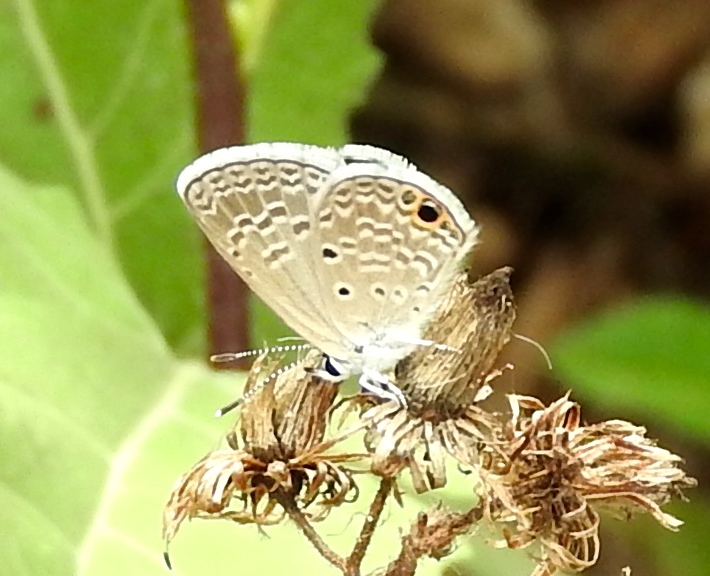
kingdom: Animalia
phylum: Arthropoda
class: Insecta
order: Lepidoptera
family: Lycaenidae
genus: Echinargus
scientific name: Echinargus isola
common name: Reakirt's blue
